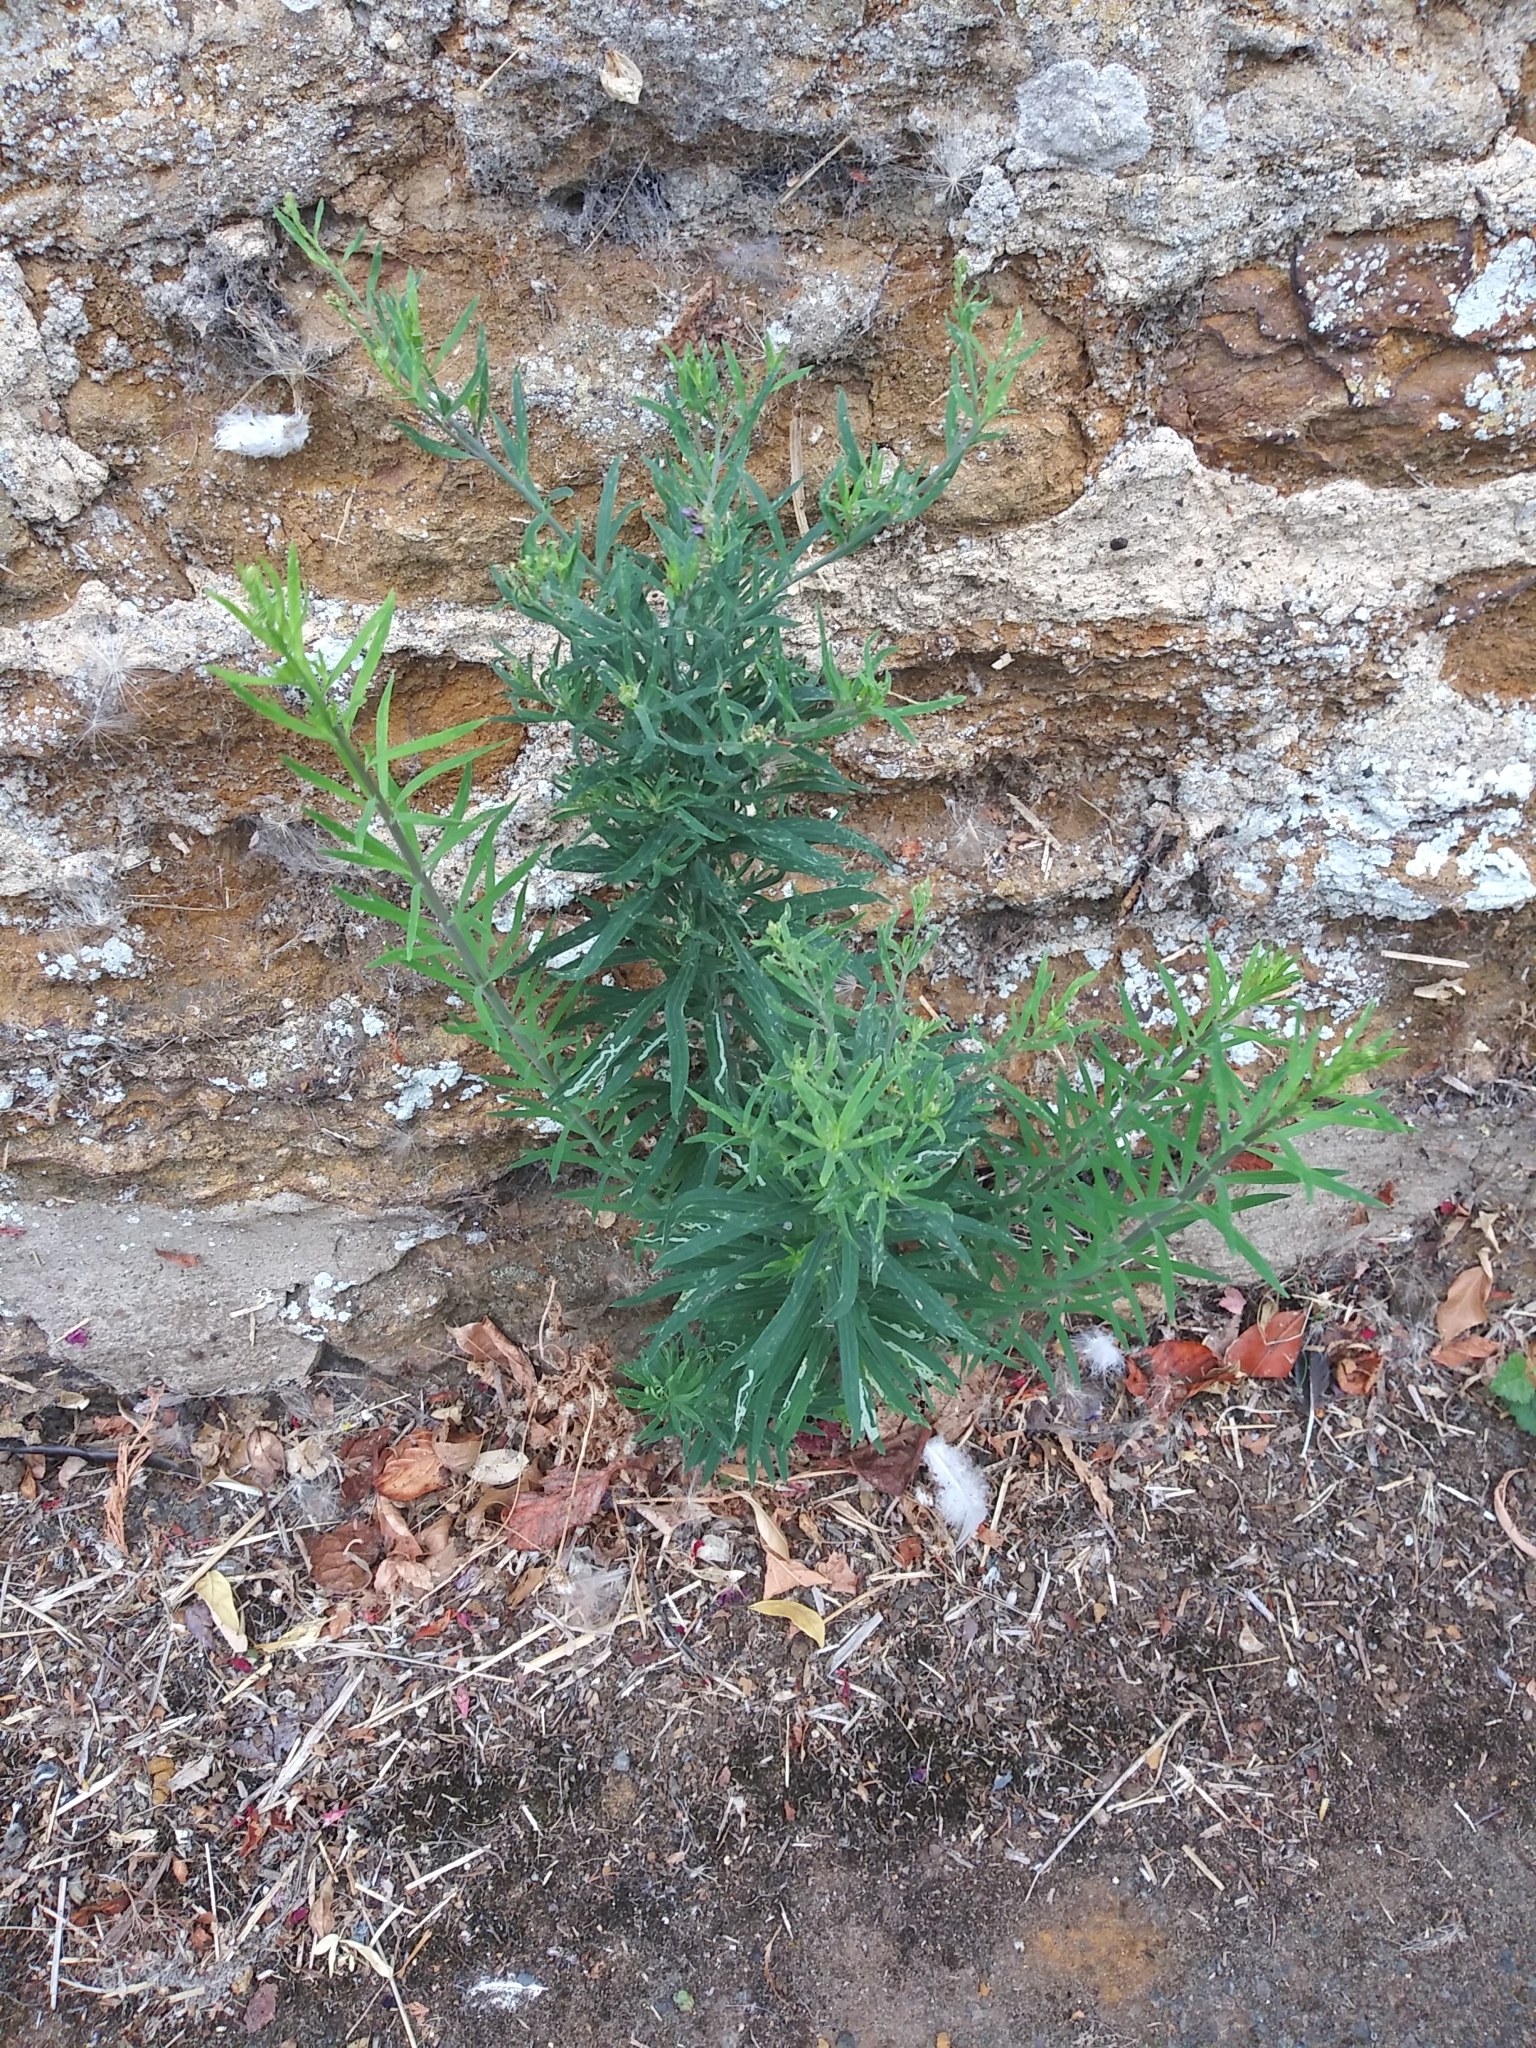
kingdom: Plantae
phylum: Tracheophyta
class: Magnoliopsida
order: Lamiales
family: Plantaginaceae
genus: Linaria
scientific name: Linaria purpurea
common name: Purple toadflax
